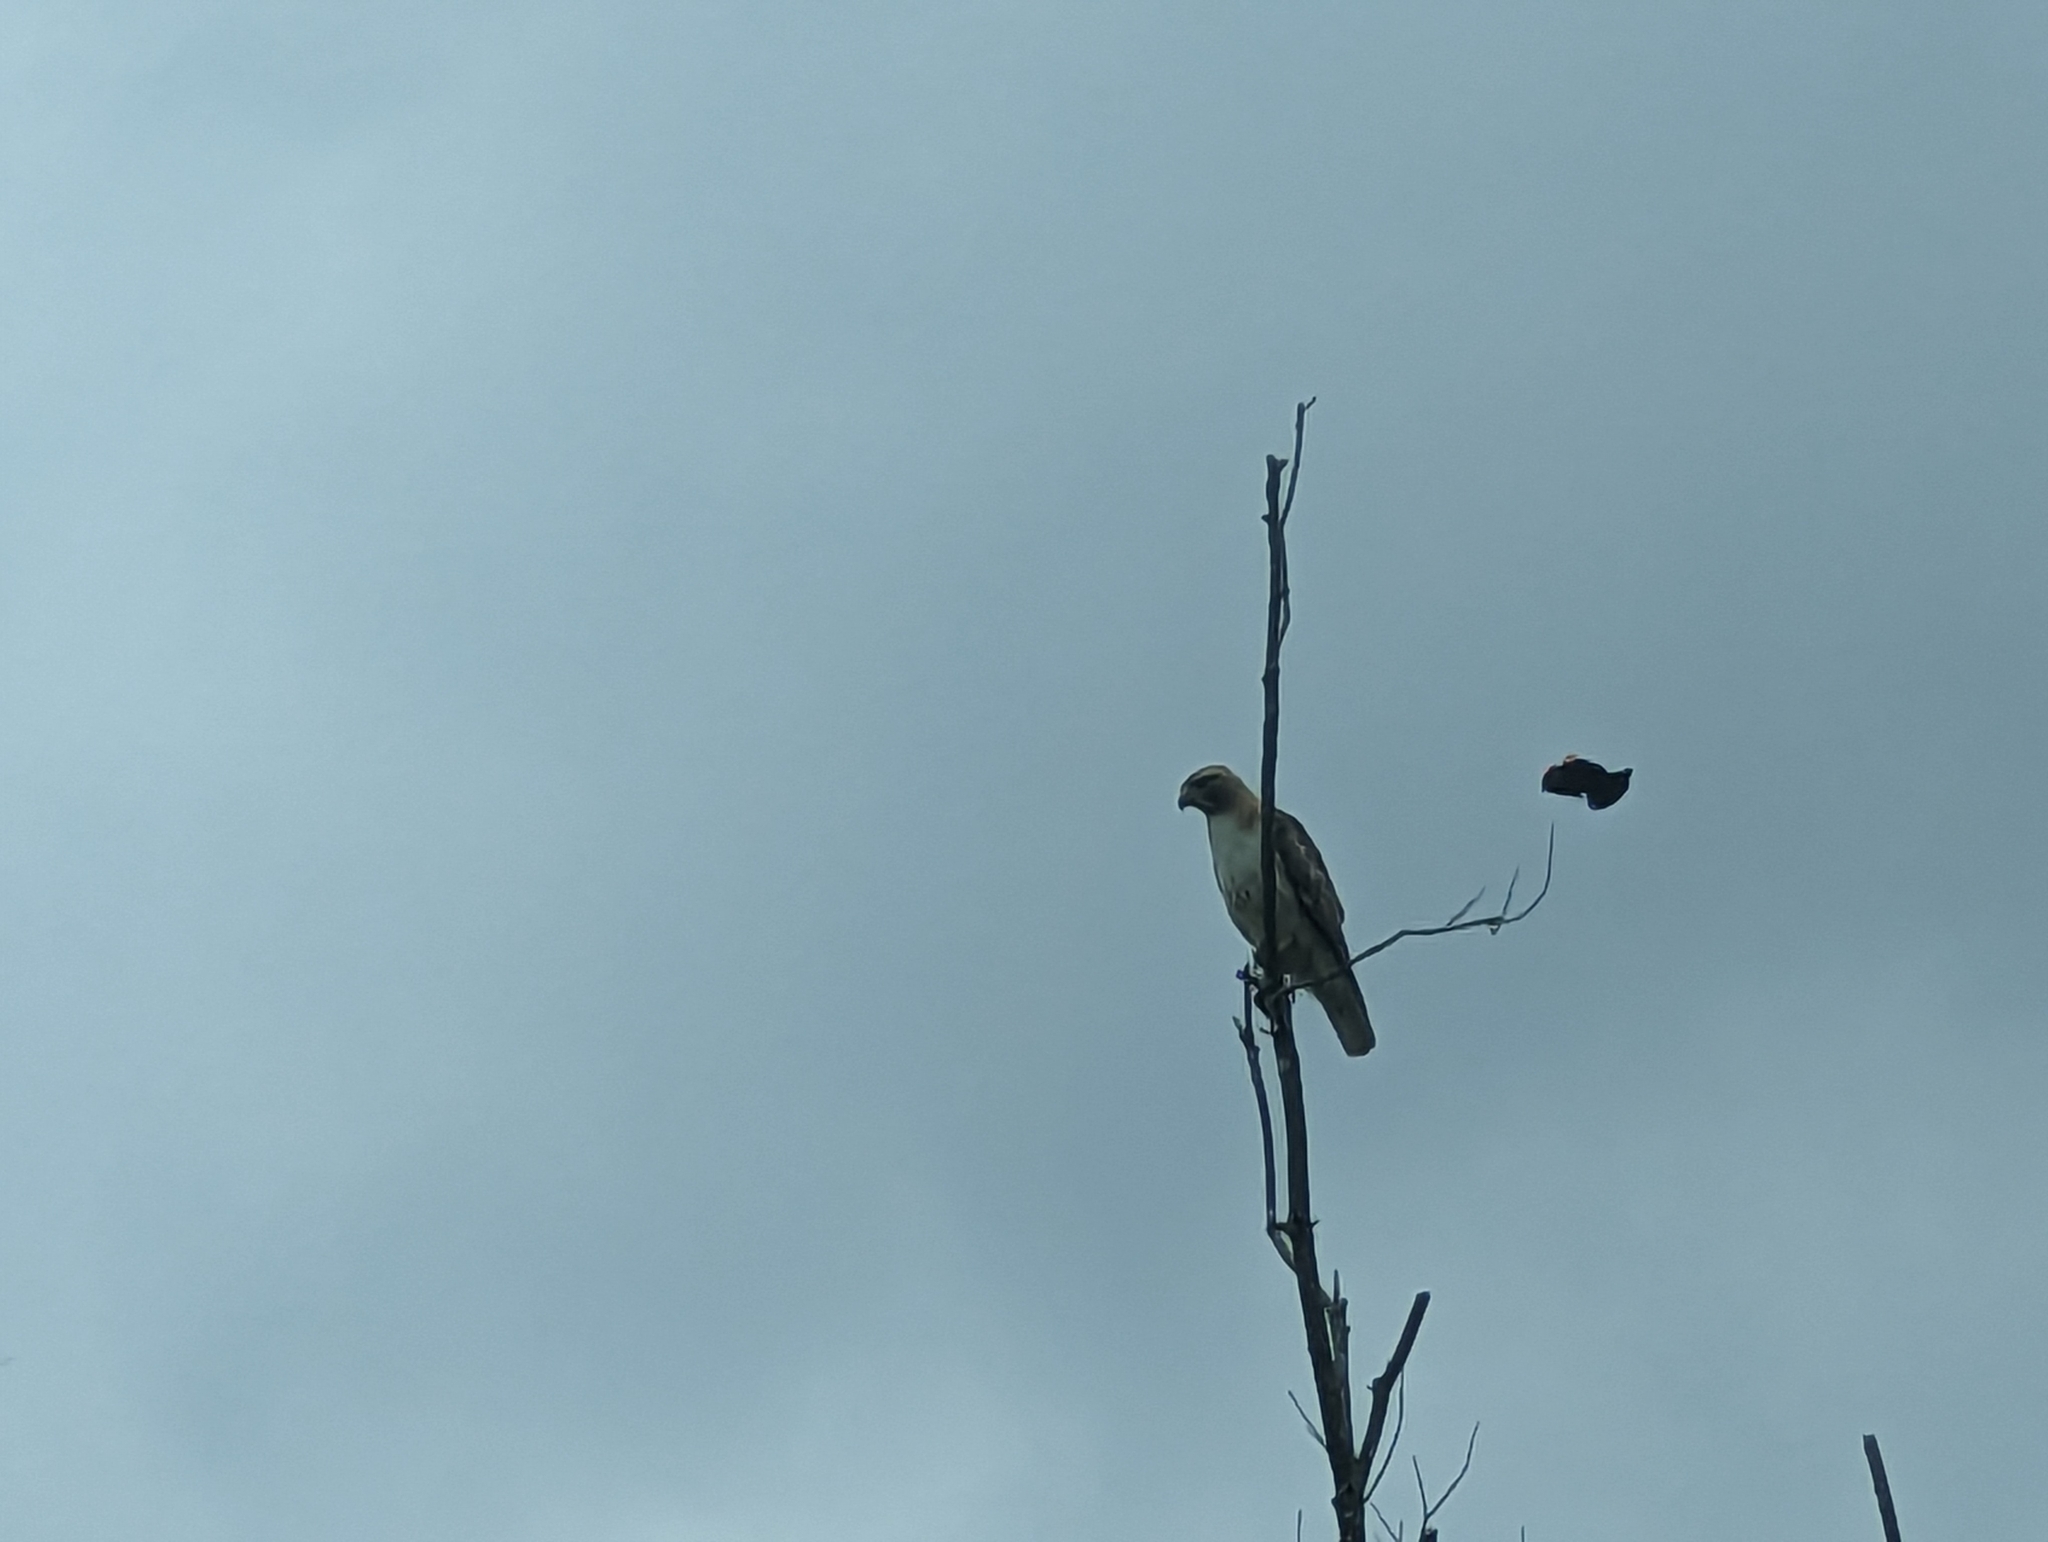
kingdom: Animalia
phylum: Chordata
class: Aves
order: Passeriformes
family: Icteridae
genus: Agelaius
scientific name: Agelaius phoeniceus
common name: Red-winged blackbird
